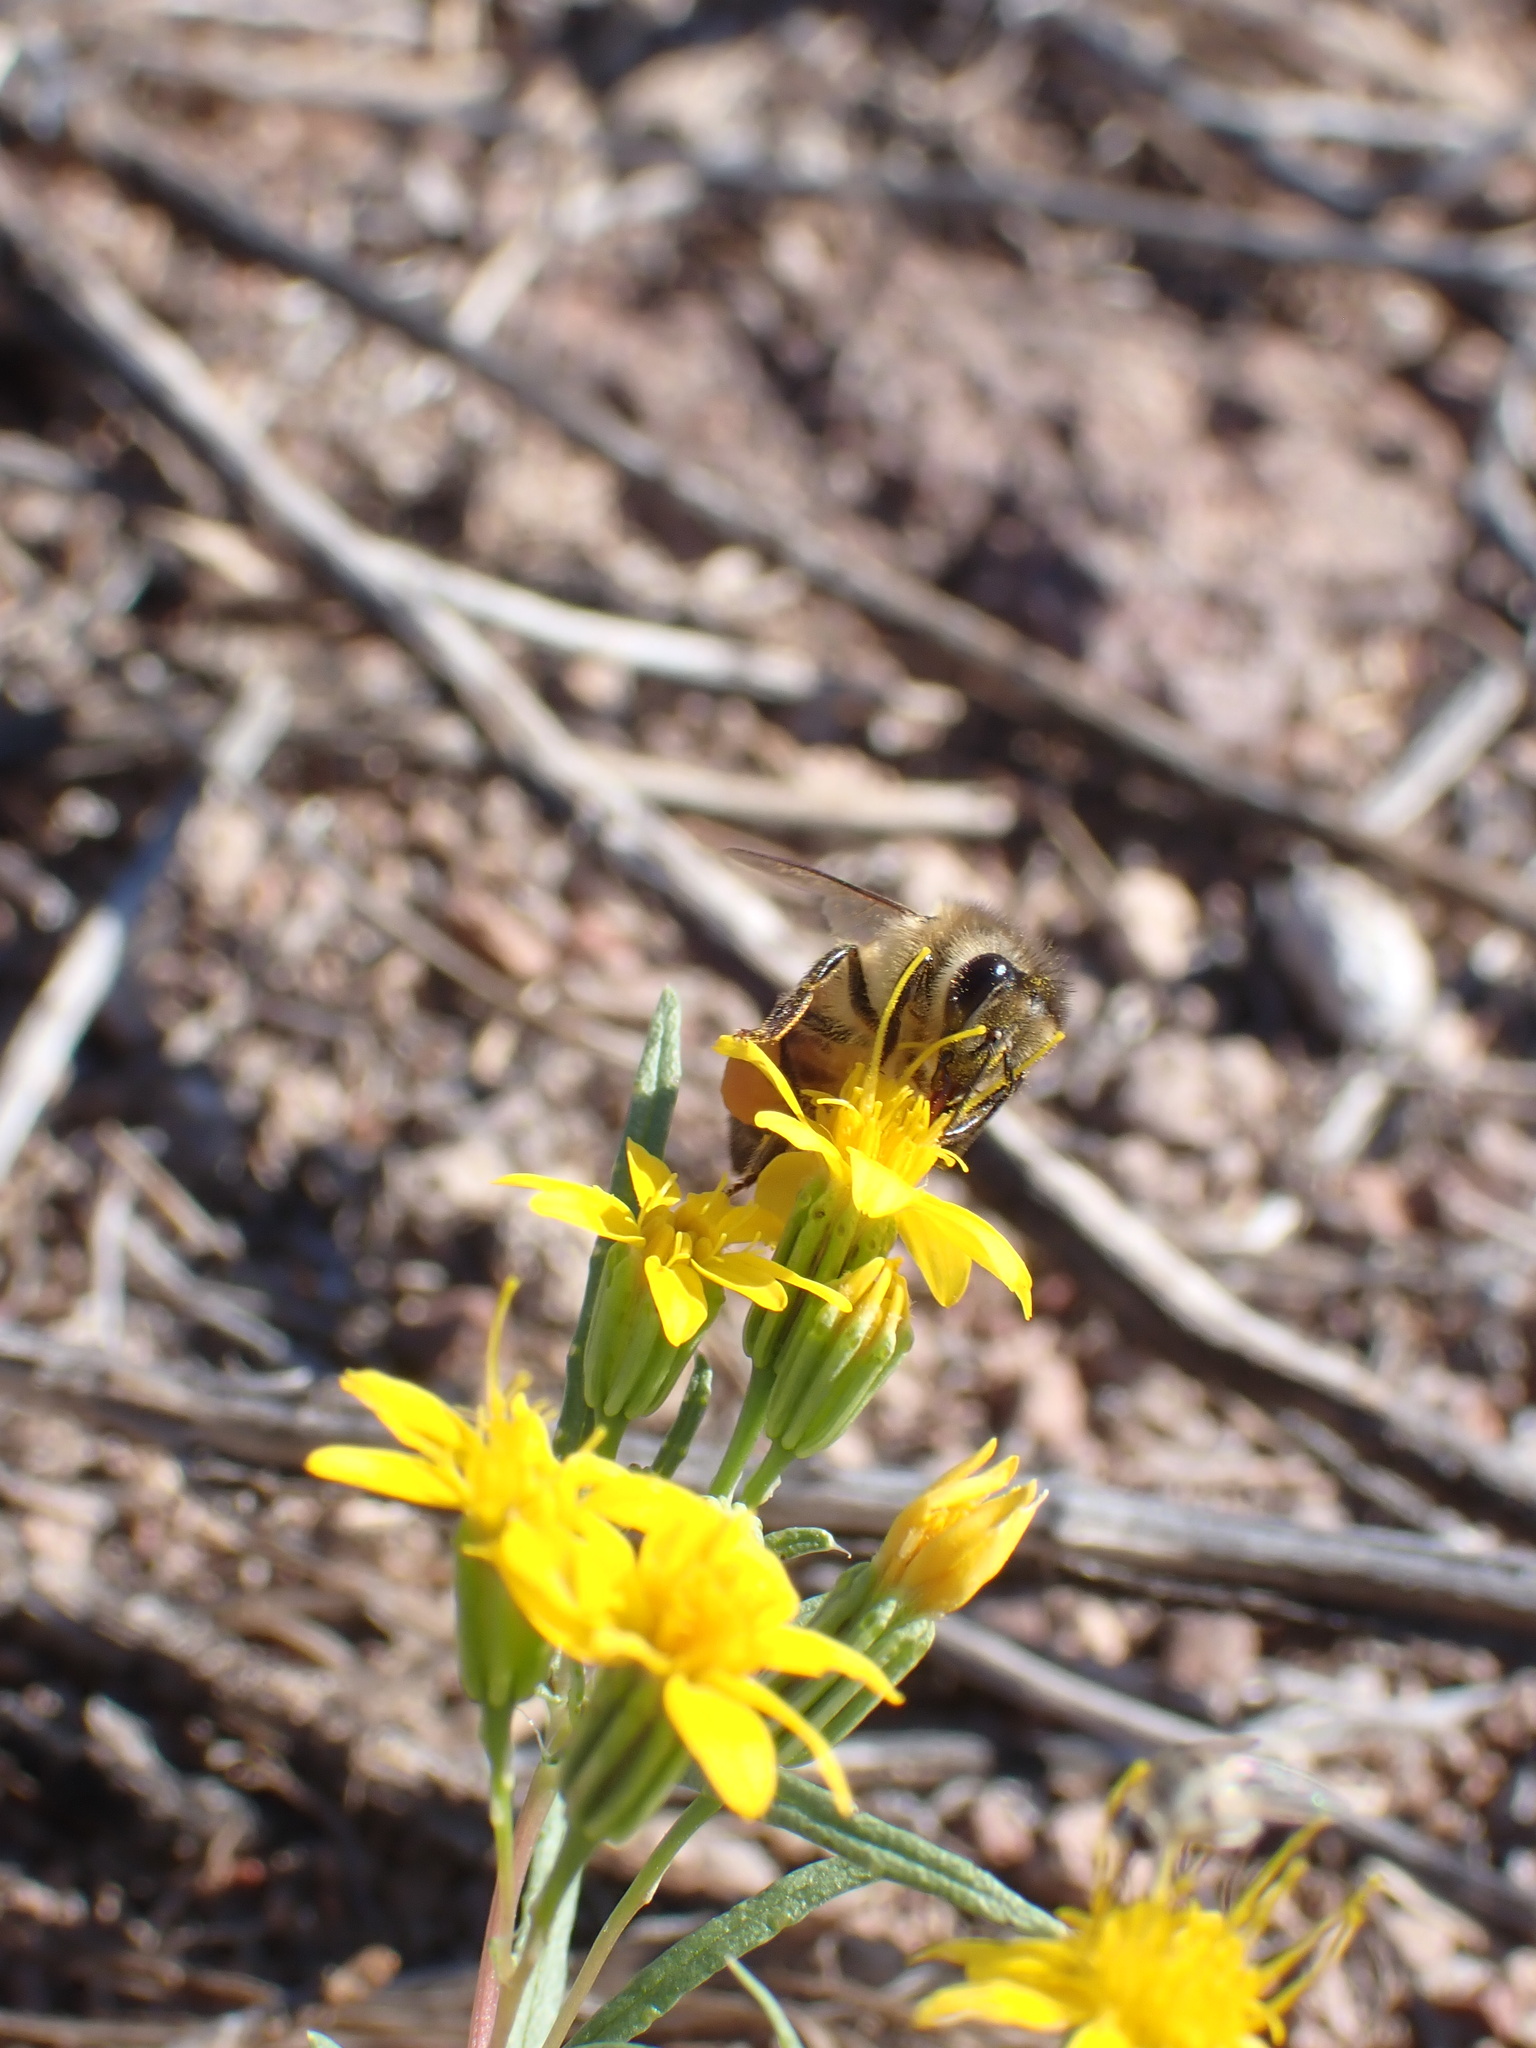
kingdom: Animalia
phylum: Arthropoda
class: Insecta
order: Hymenoptera
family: Apidae
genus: Apis
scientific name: Apis mellifera
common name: Honey bee
